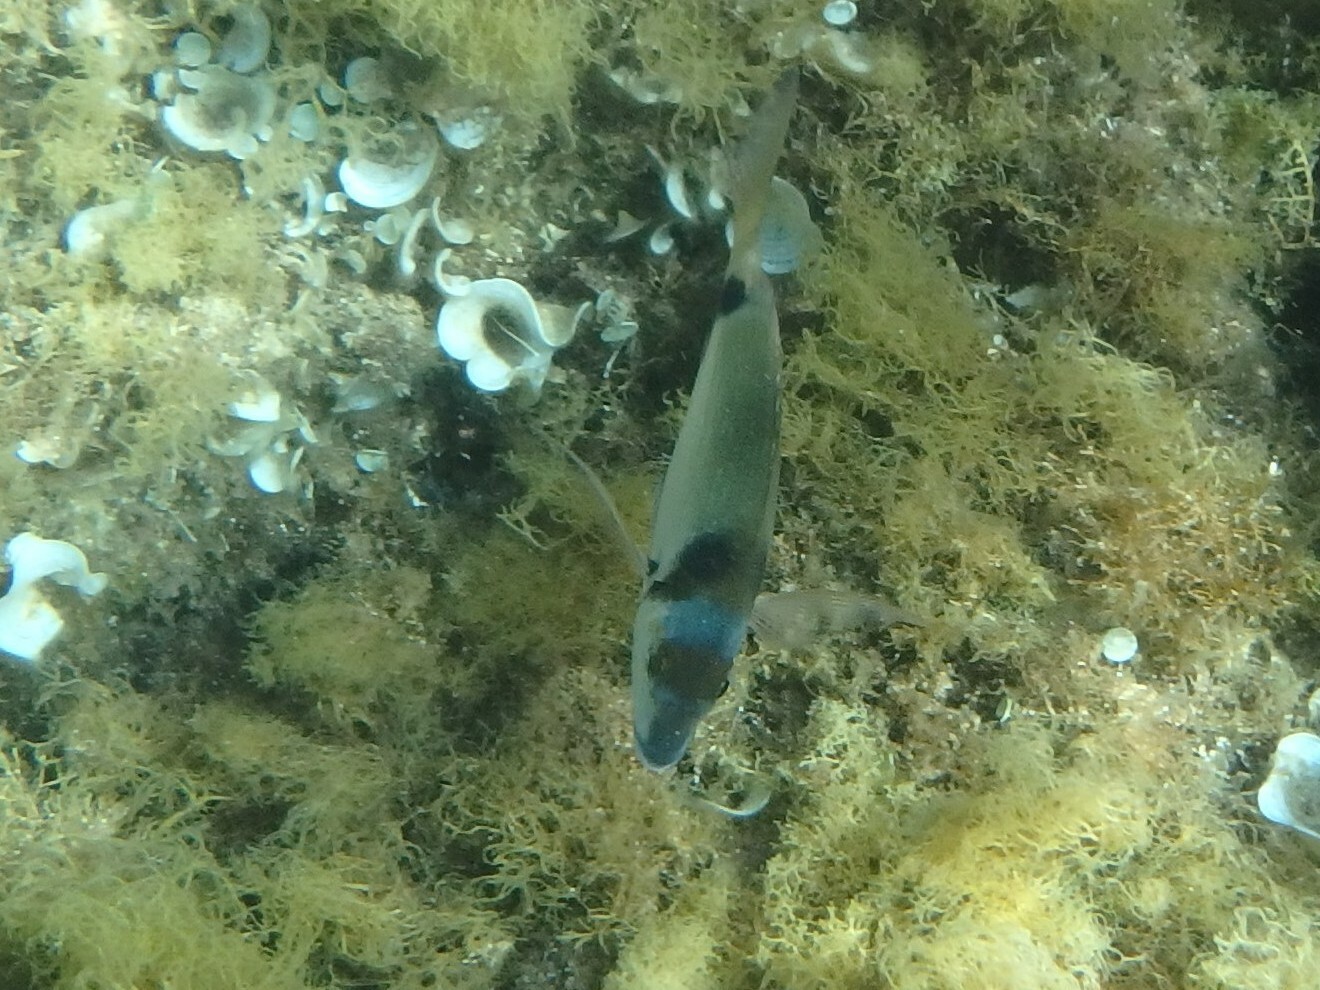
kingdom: Animalia
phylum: Chordata
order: Perciformes
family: Sparidae
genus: Diplodus
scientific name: Diplodus vulgaris
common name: Common two-banded seabream
